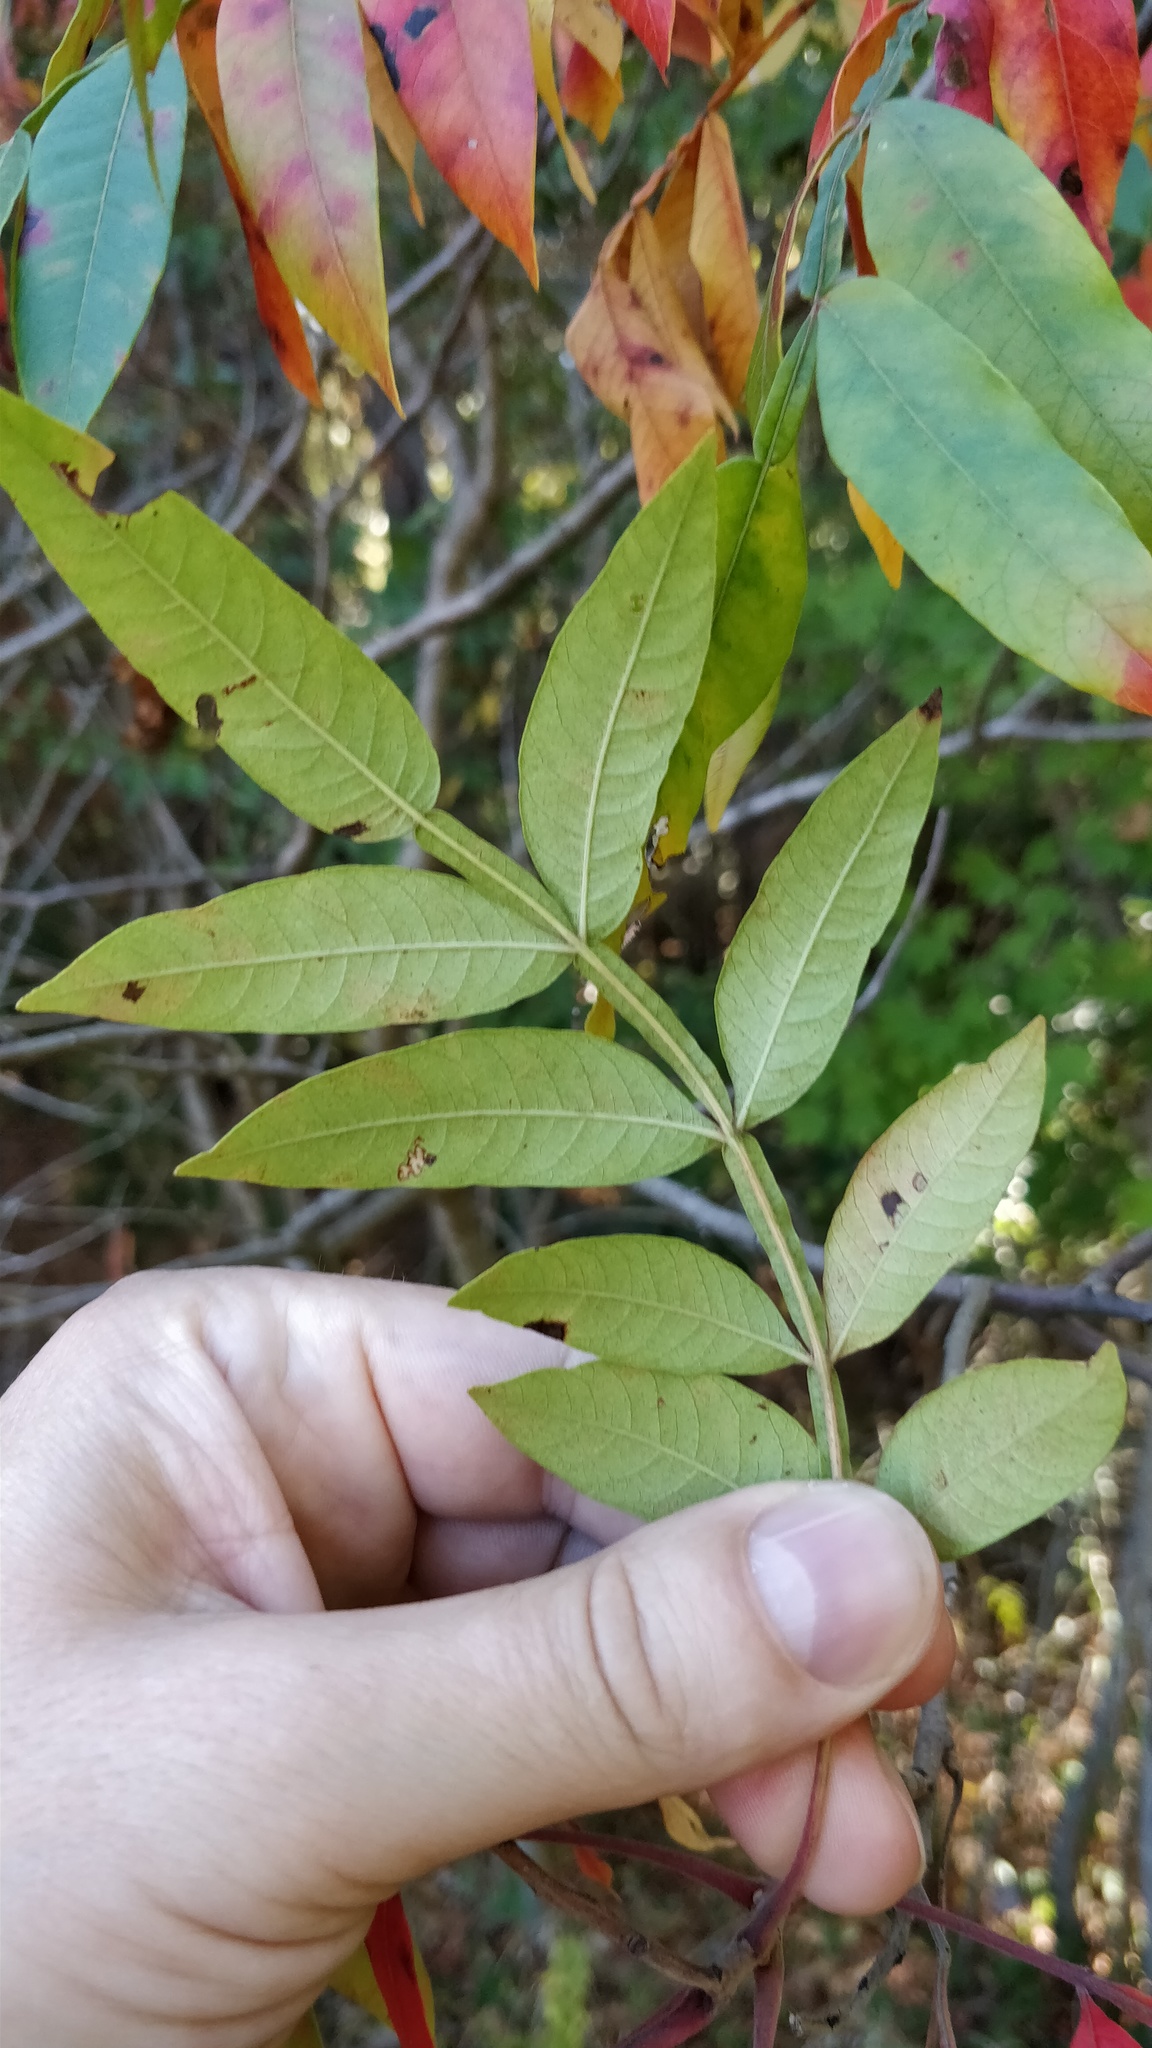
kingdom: Plantae
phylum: Tracheophyta
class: Magnoliopsida
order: Sapindales
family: Anacardiaceae
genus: Rhus
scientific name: Rhus copallina
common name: Shining sumac
